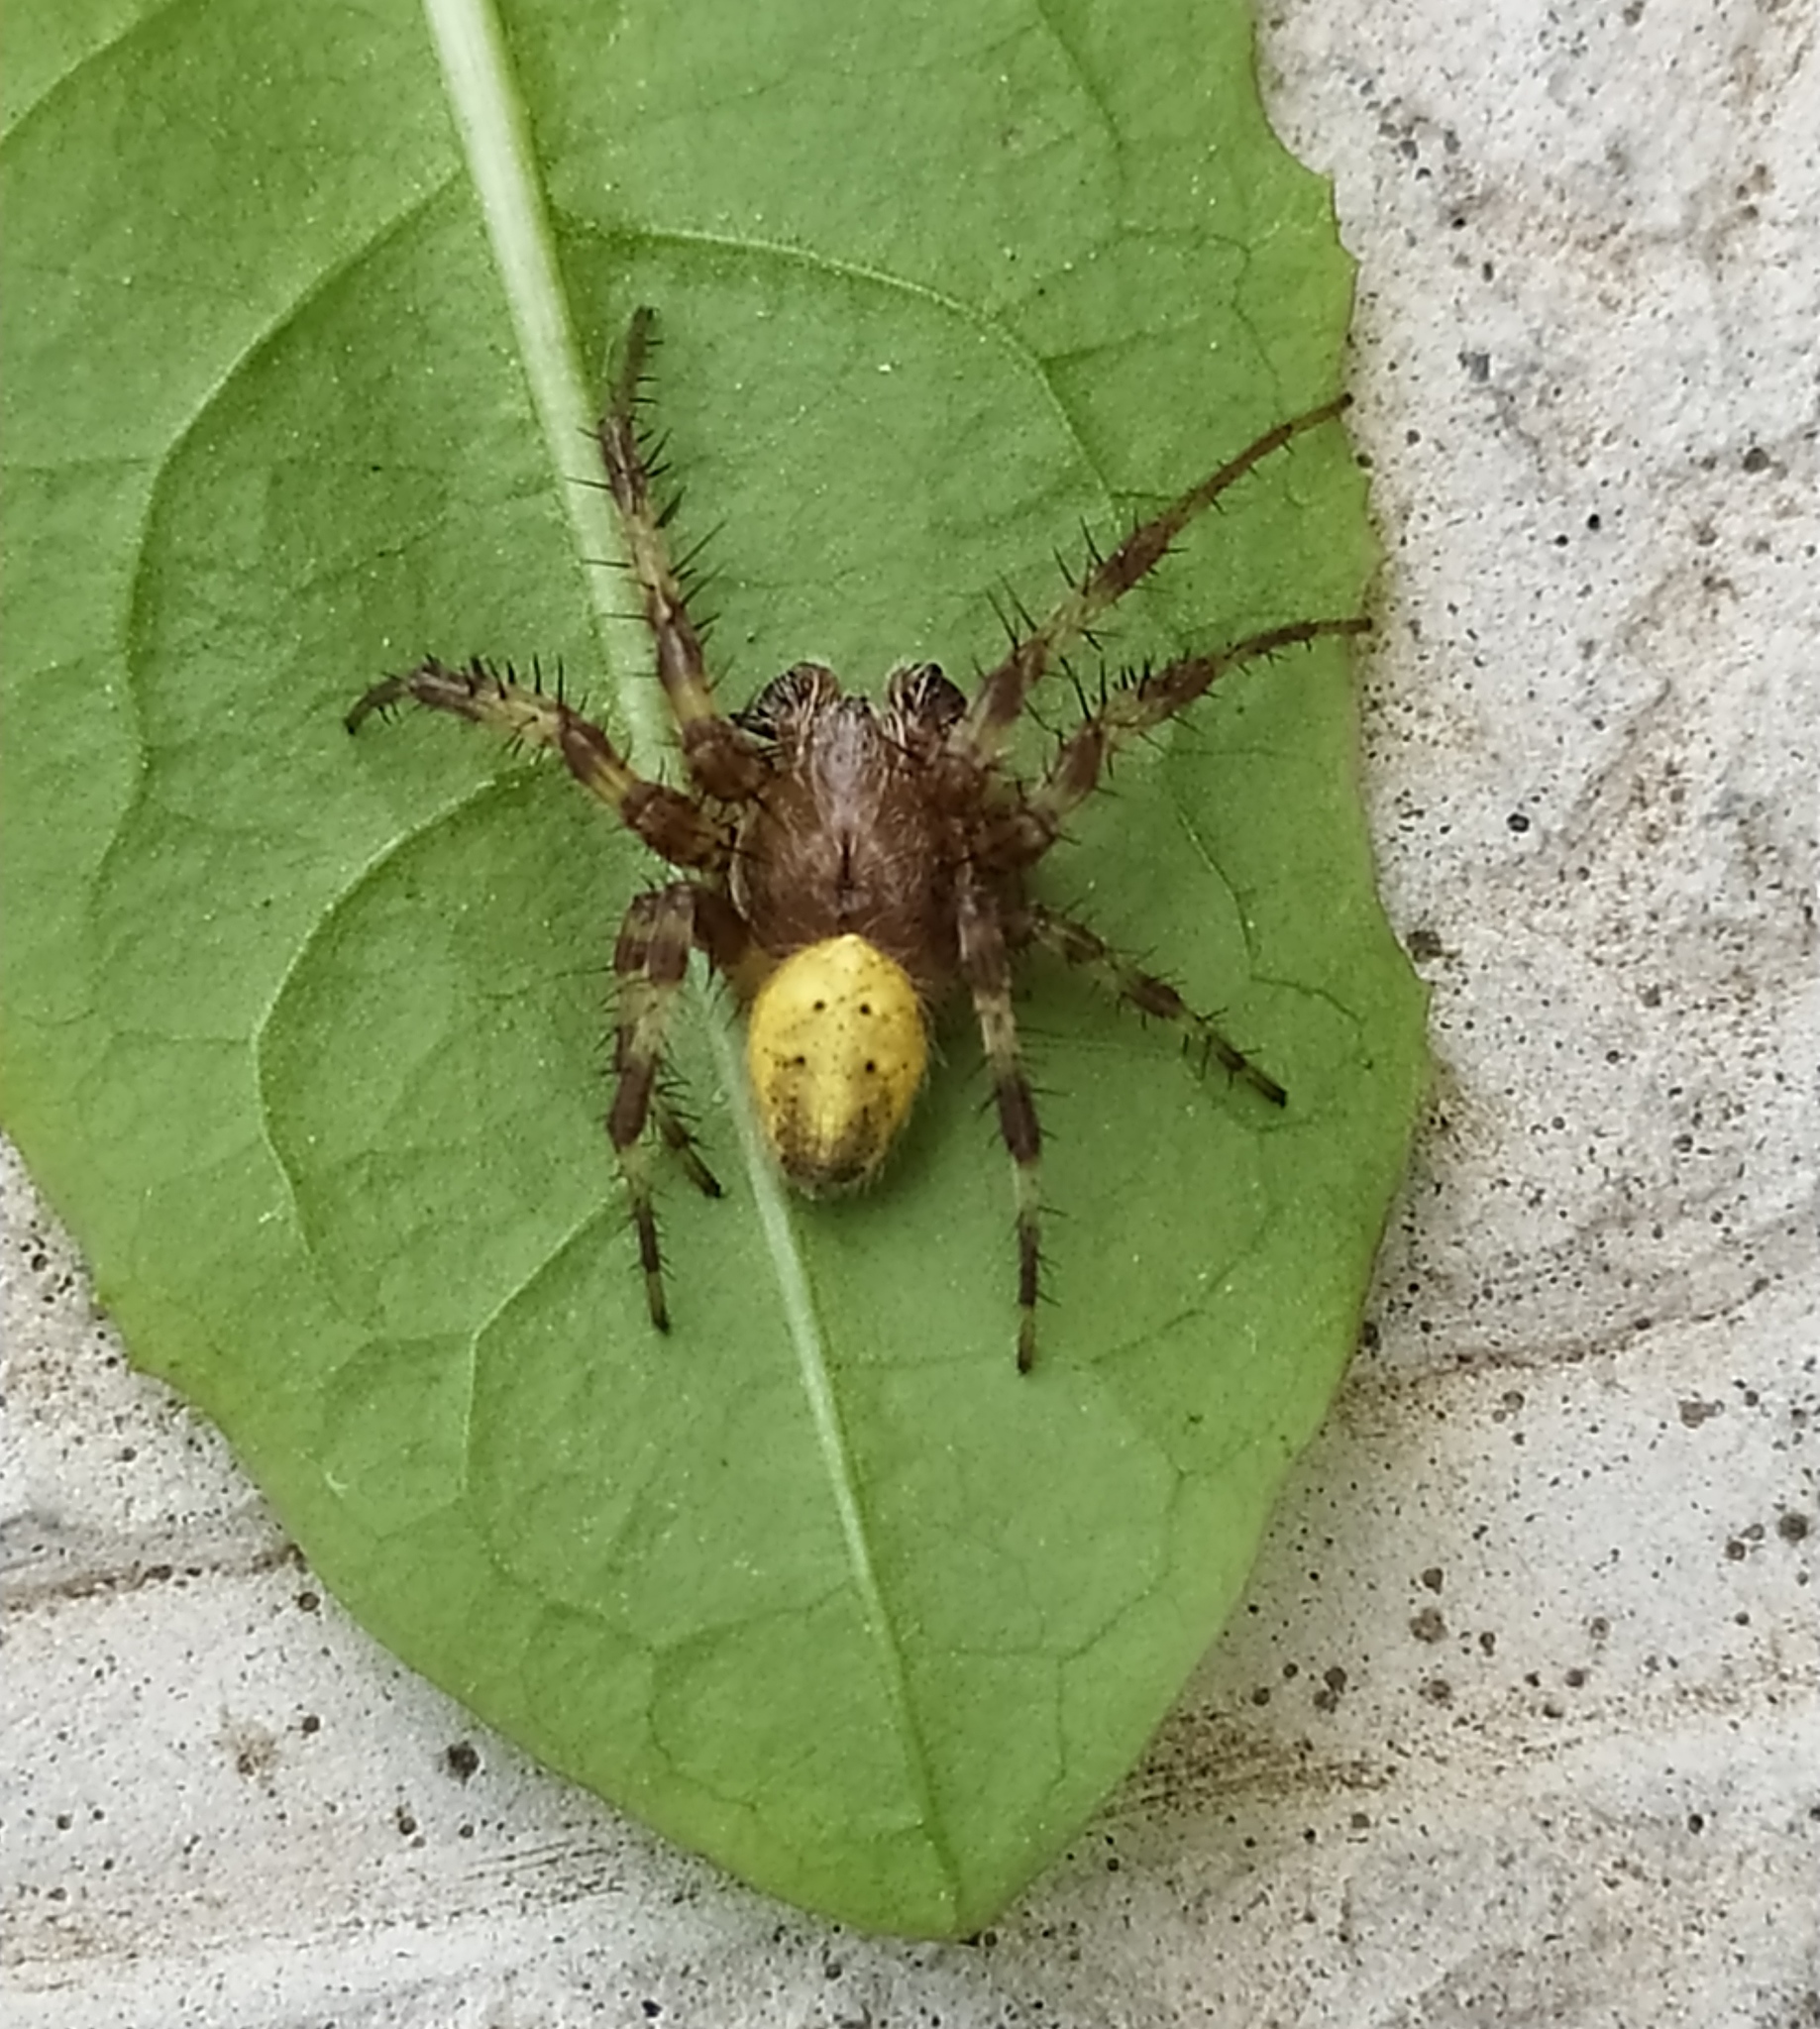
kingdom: Animalia
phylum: Arthropoda
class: Arachnida
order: Araneae
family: Araneidae
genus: Araneus
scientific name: Araneus quadratus
